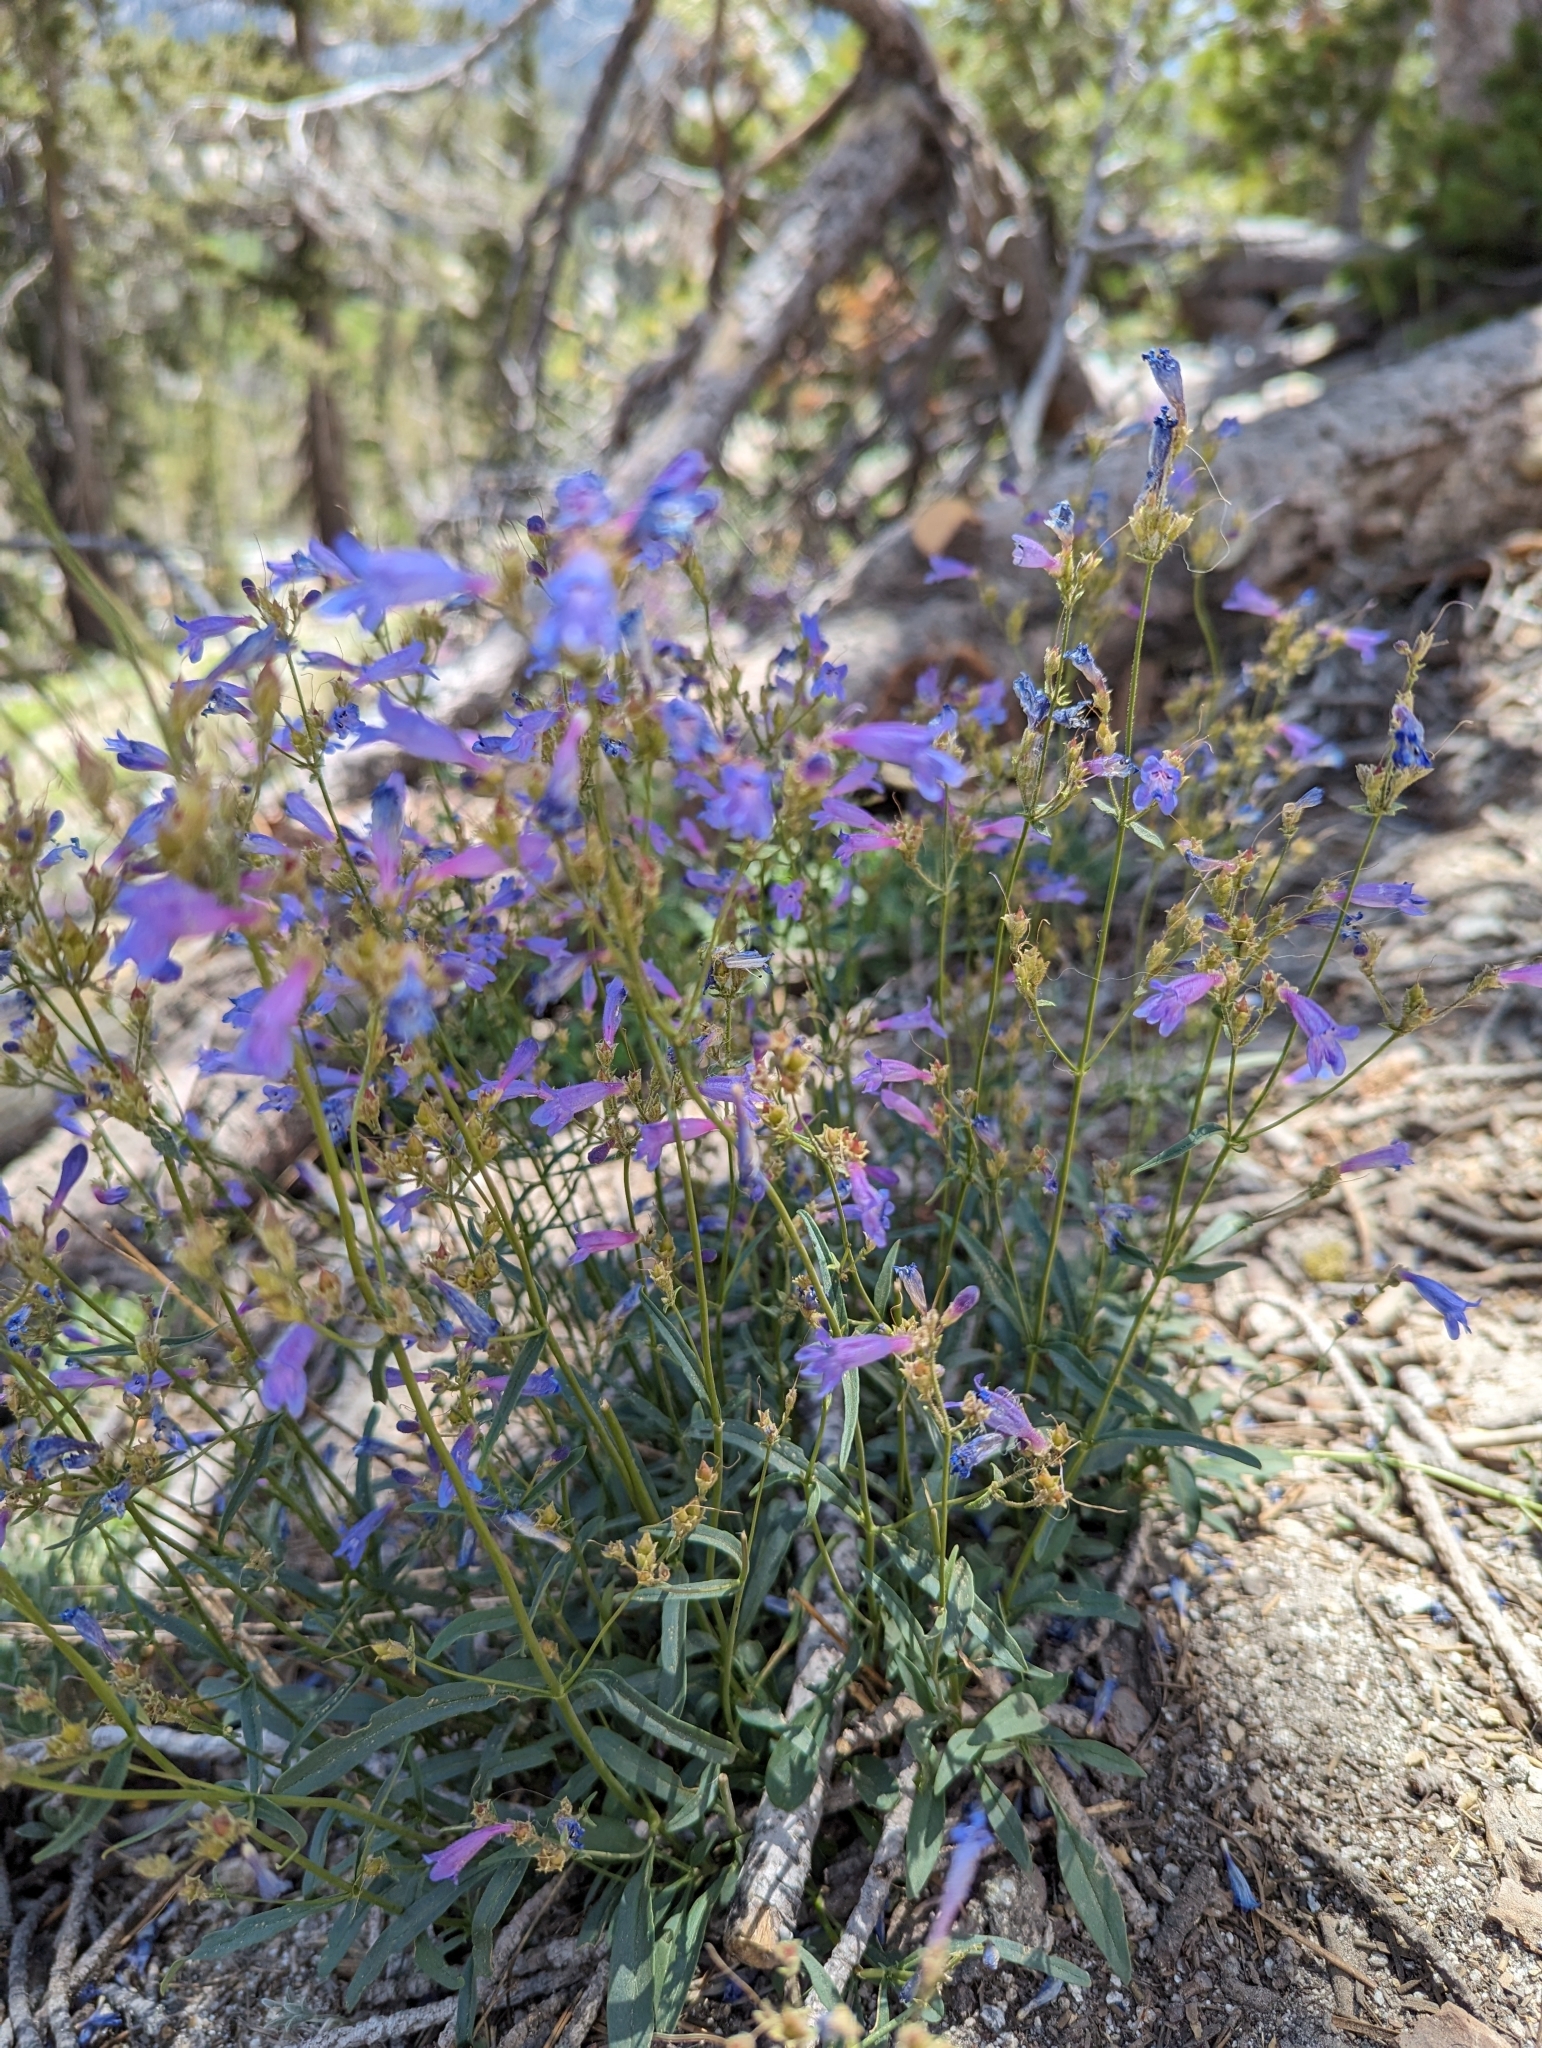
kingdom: Plantae
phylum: Tracheophyta
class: Magnoliopsida
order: Lamiales
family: Plantaginaceae
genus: Penstemon
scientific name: Penstemon gracilentus
